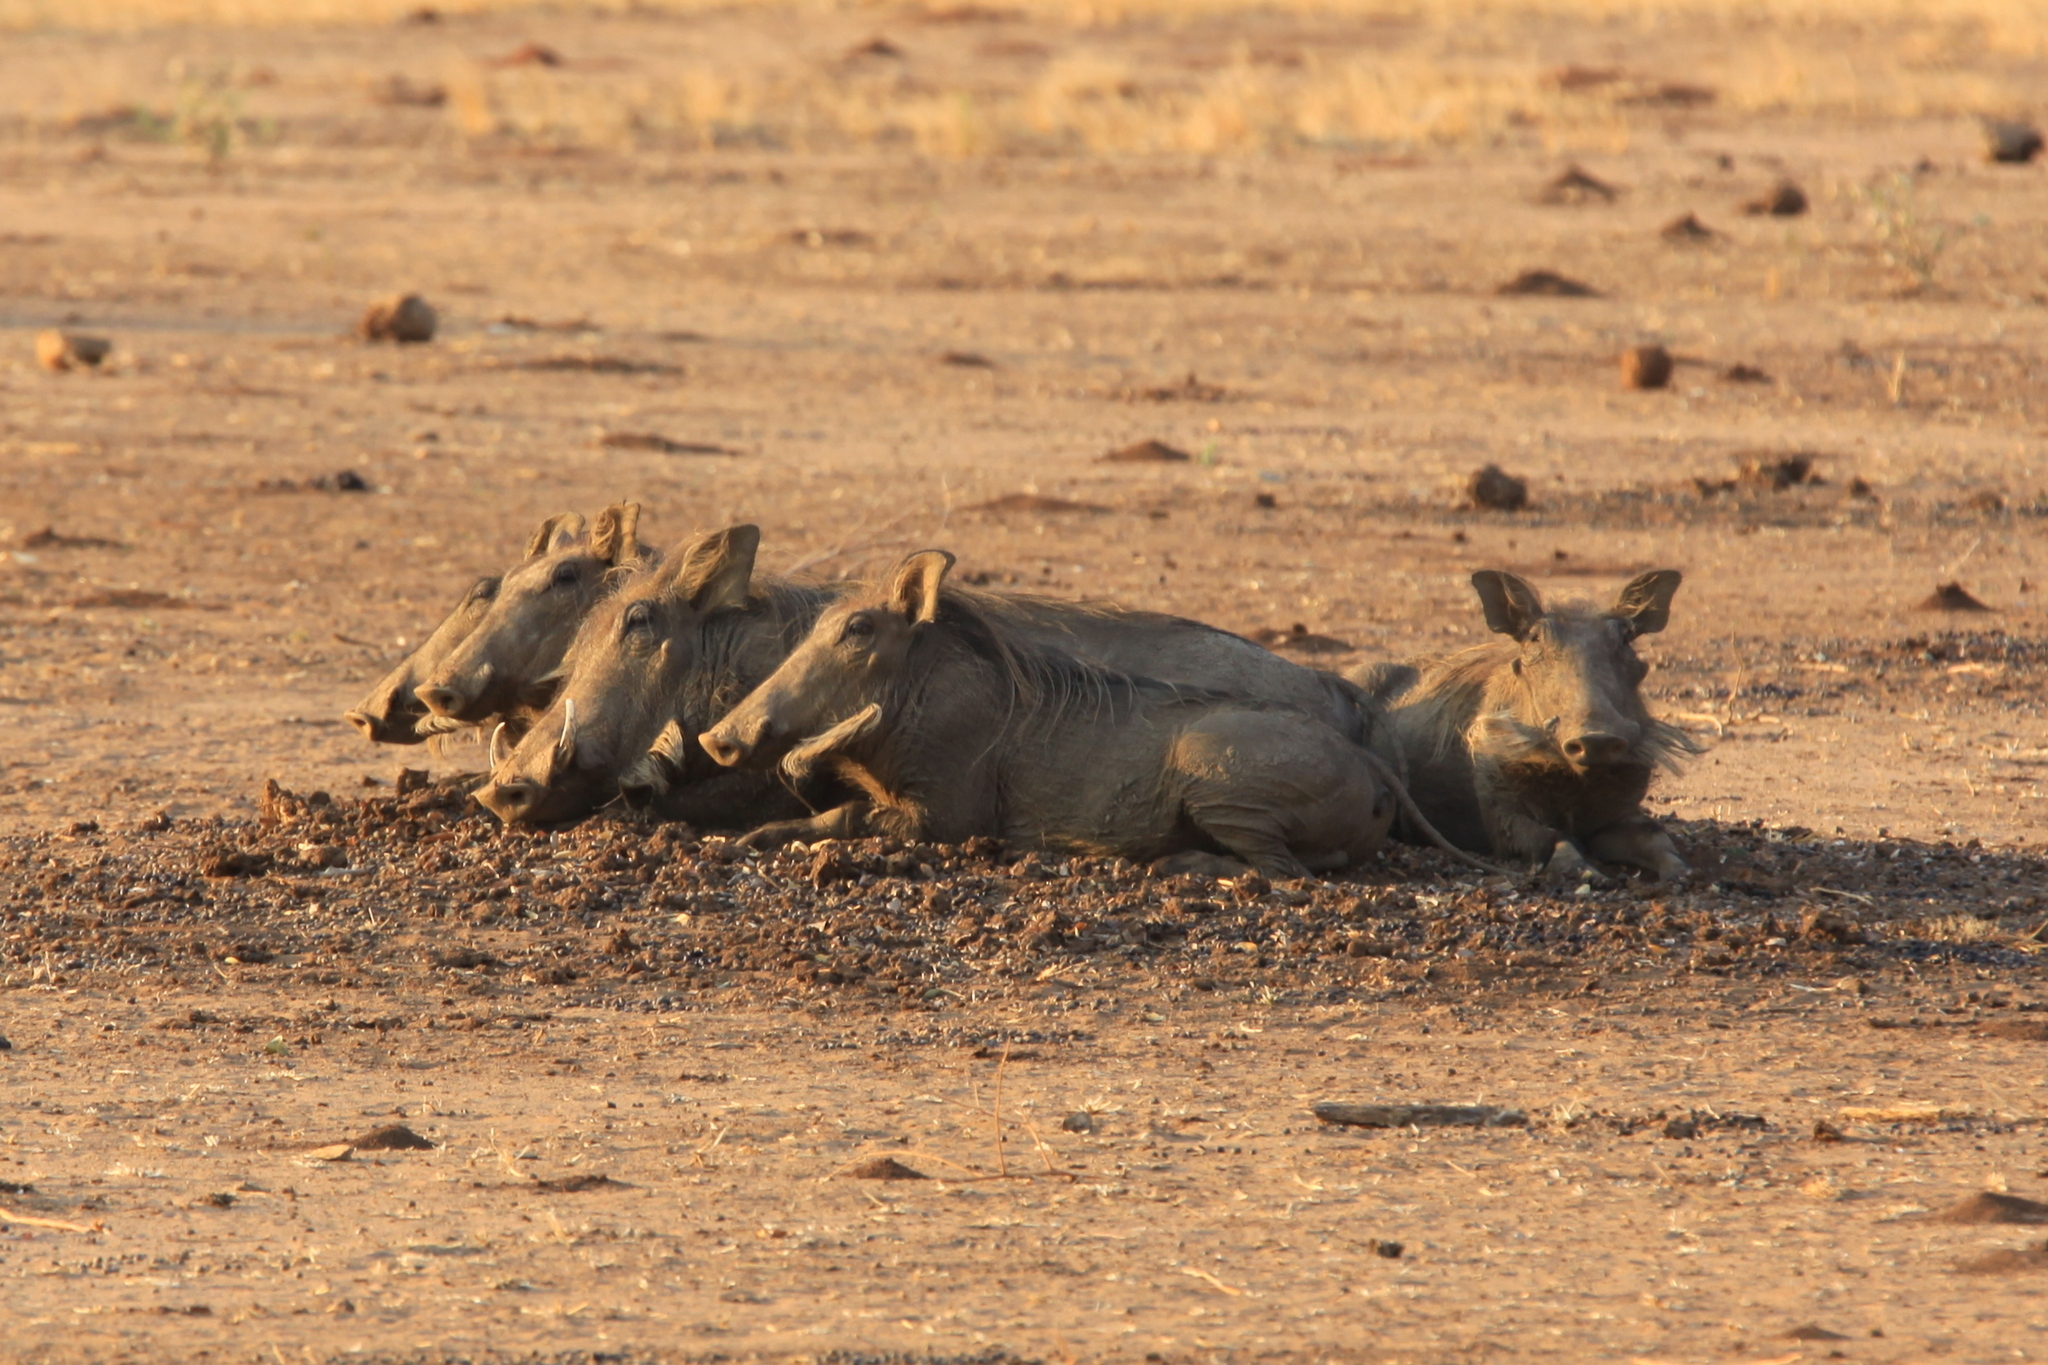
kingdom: Animalia
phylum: Chordata
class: Mammalia
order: Artiodactyla
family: Suidae
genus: Phacochoerus
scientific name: Phacochoerus africanus
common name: Common warthog
